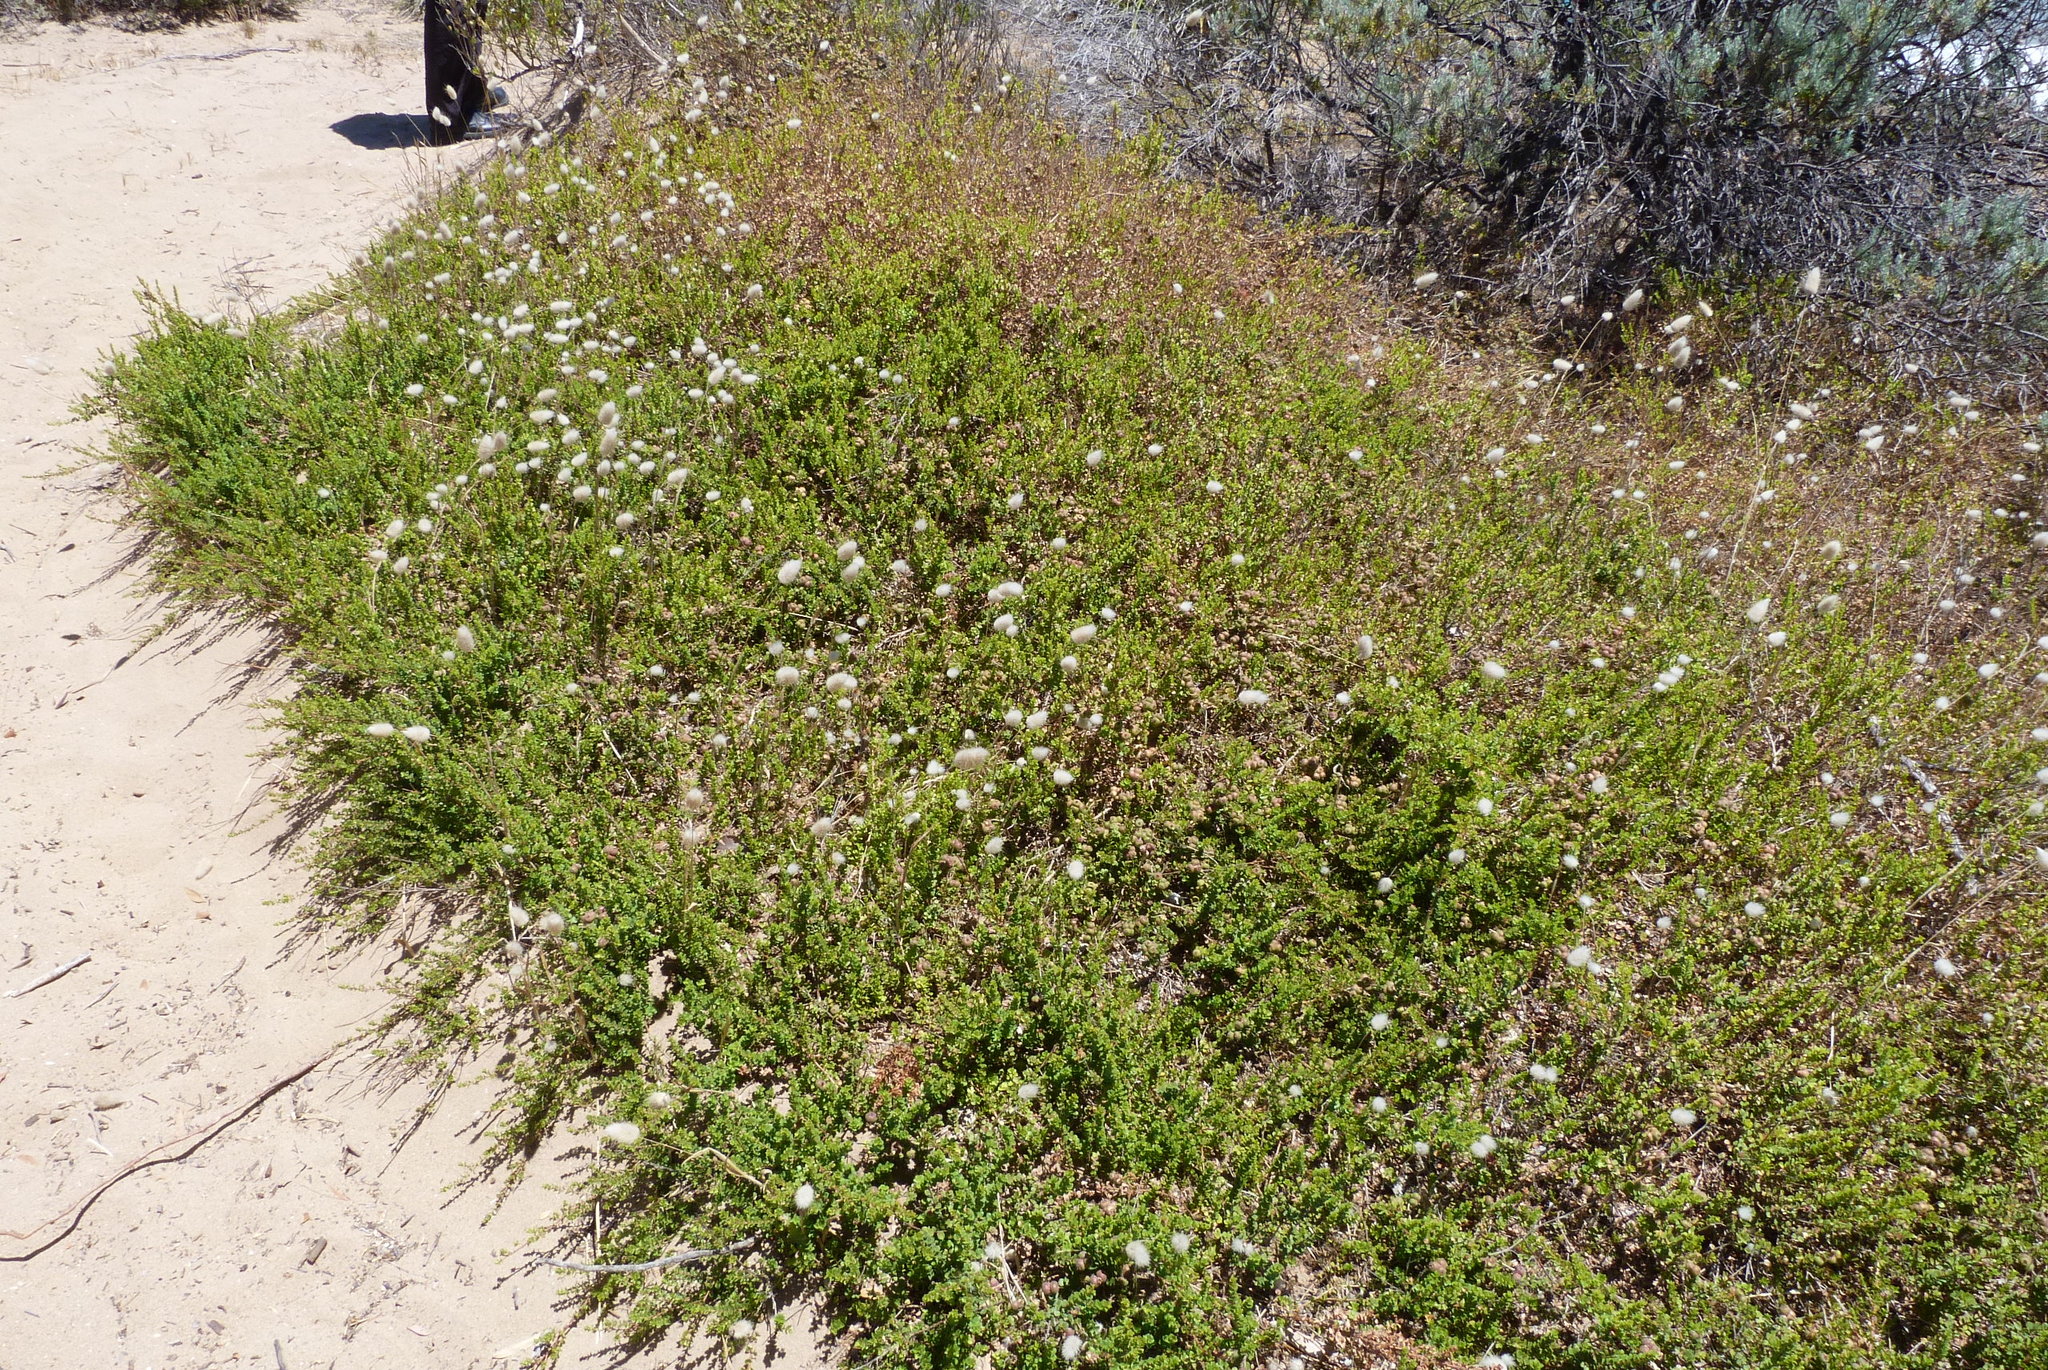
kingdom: Plantae
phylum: Tracheophyta
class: Magnoliopsida
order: Myrtales
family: Myrtaceae
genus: Kunzea
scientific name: Kunzea pomifera
